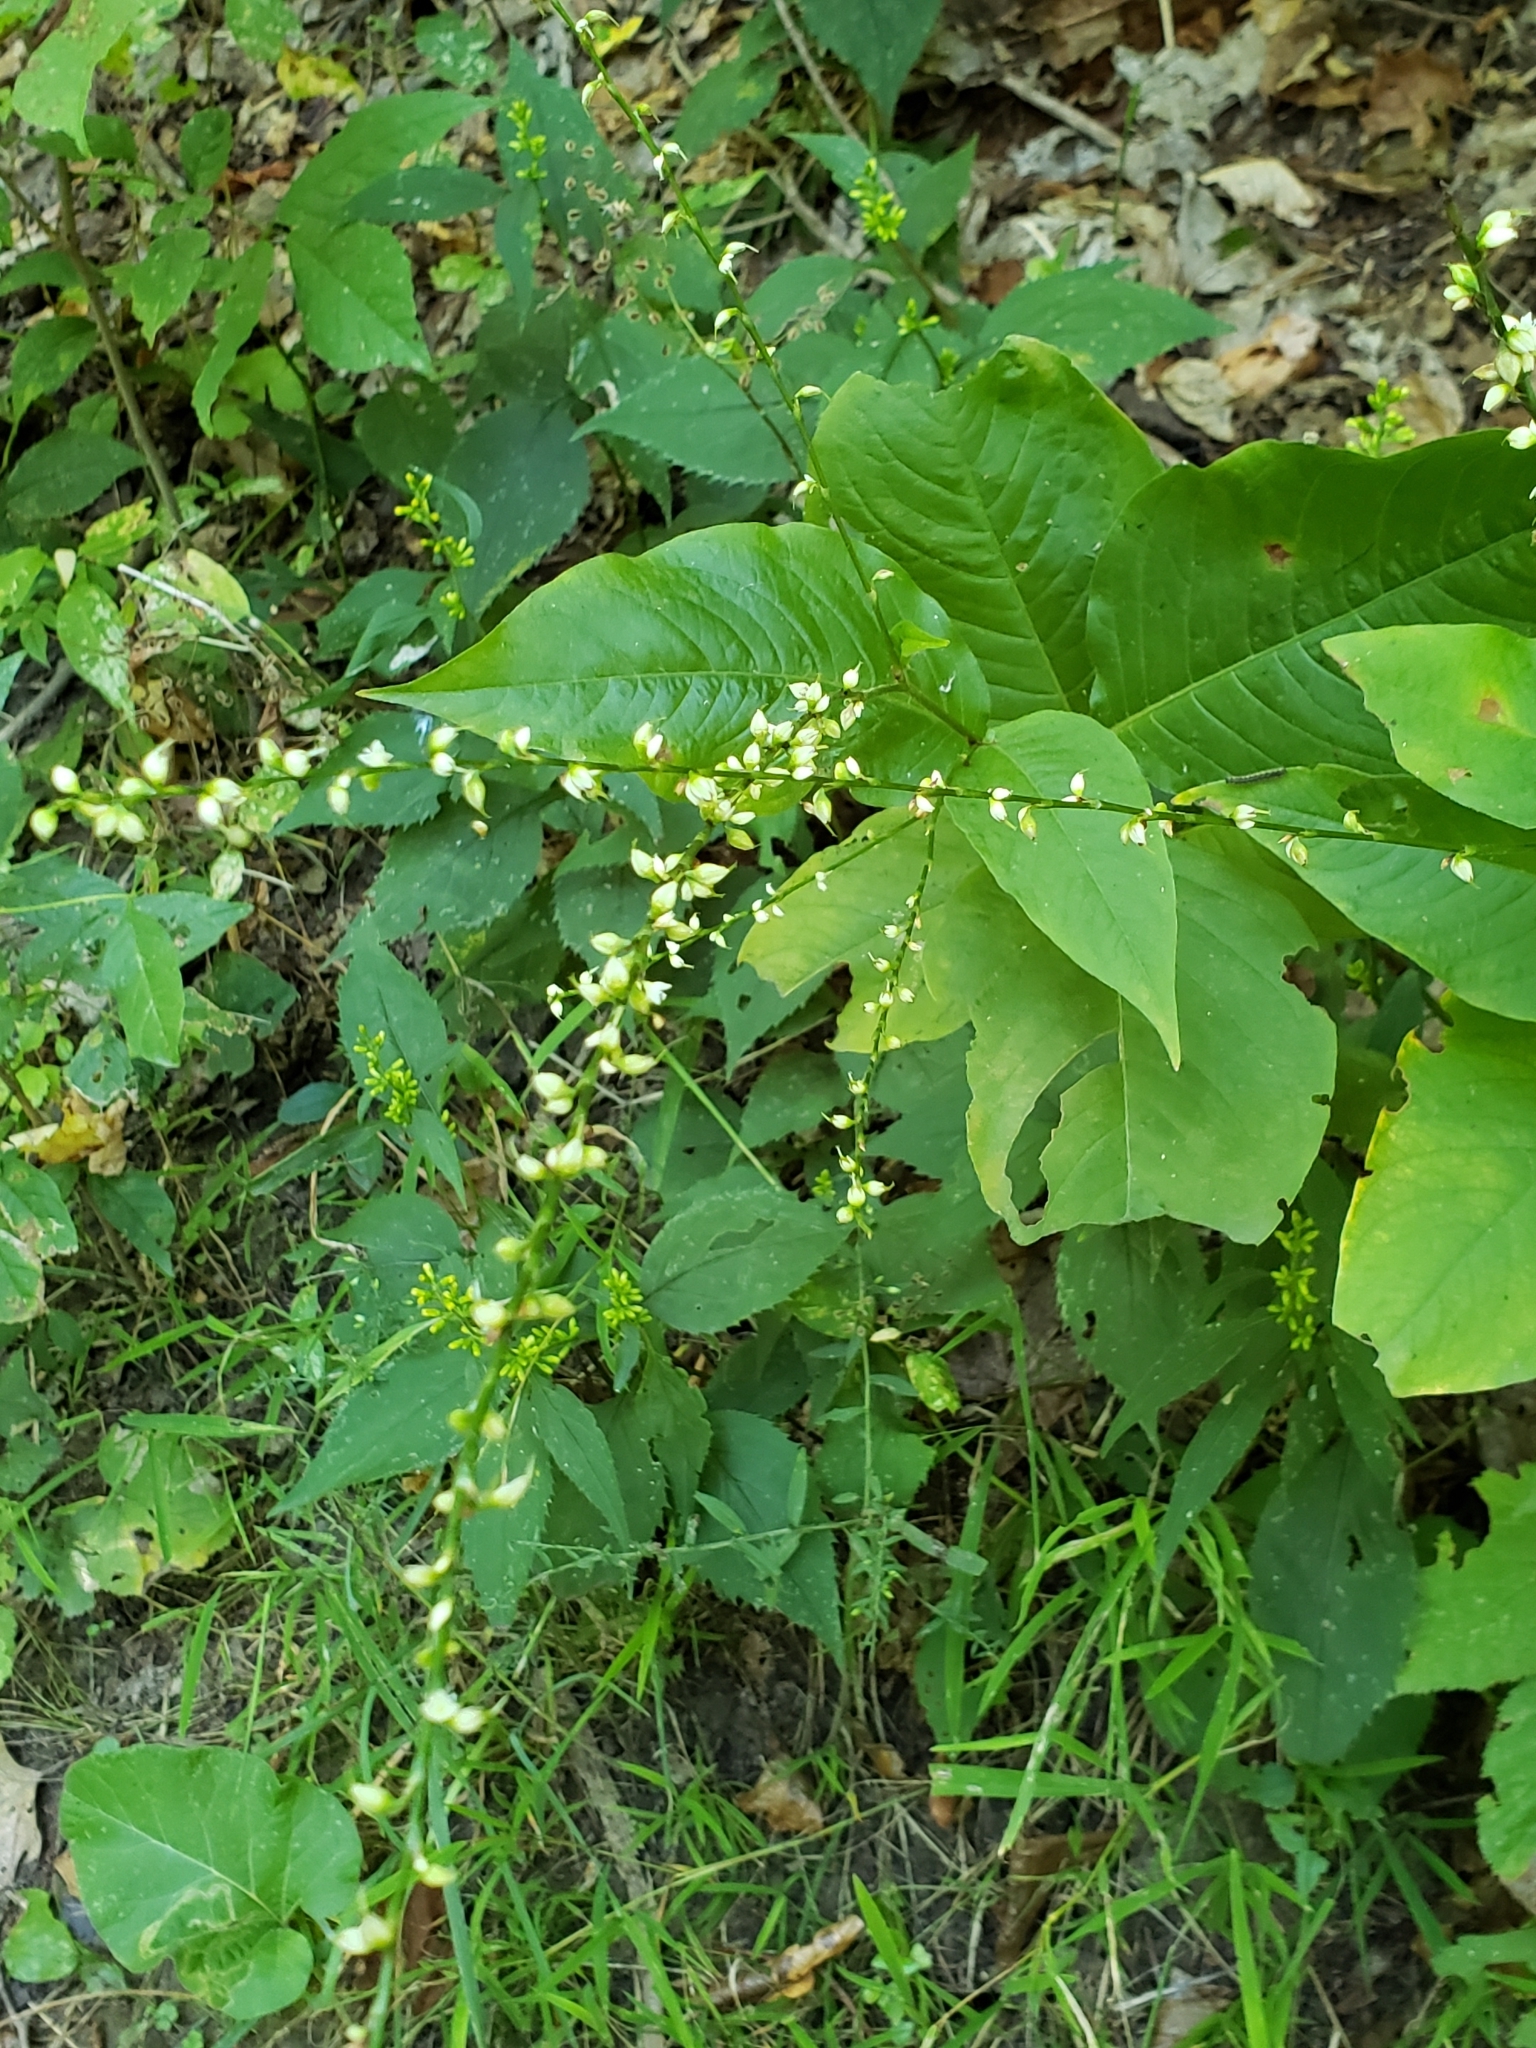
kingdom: Plantae
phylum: Tracheophyta
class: Magnoliopsida
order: Caryophyllales
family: Polygonaceae
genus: Persicaria
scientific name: Persicaria virginiana
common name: Jumpseed
